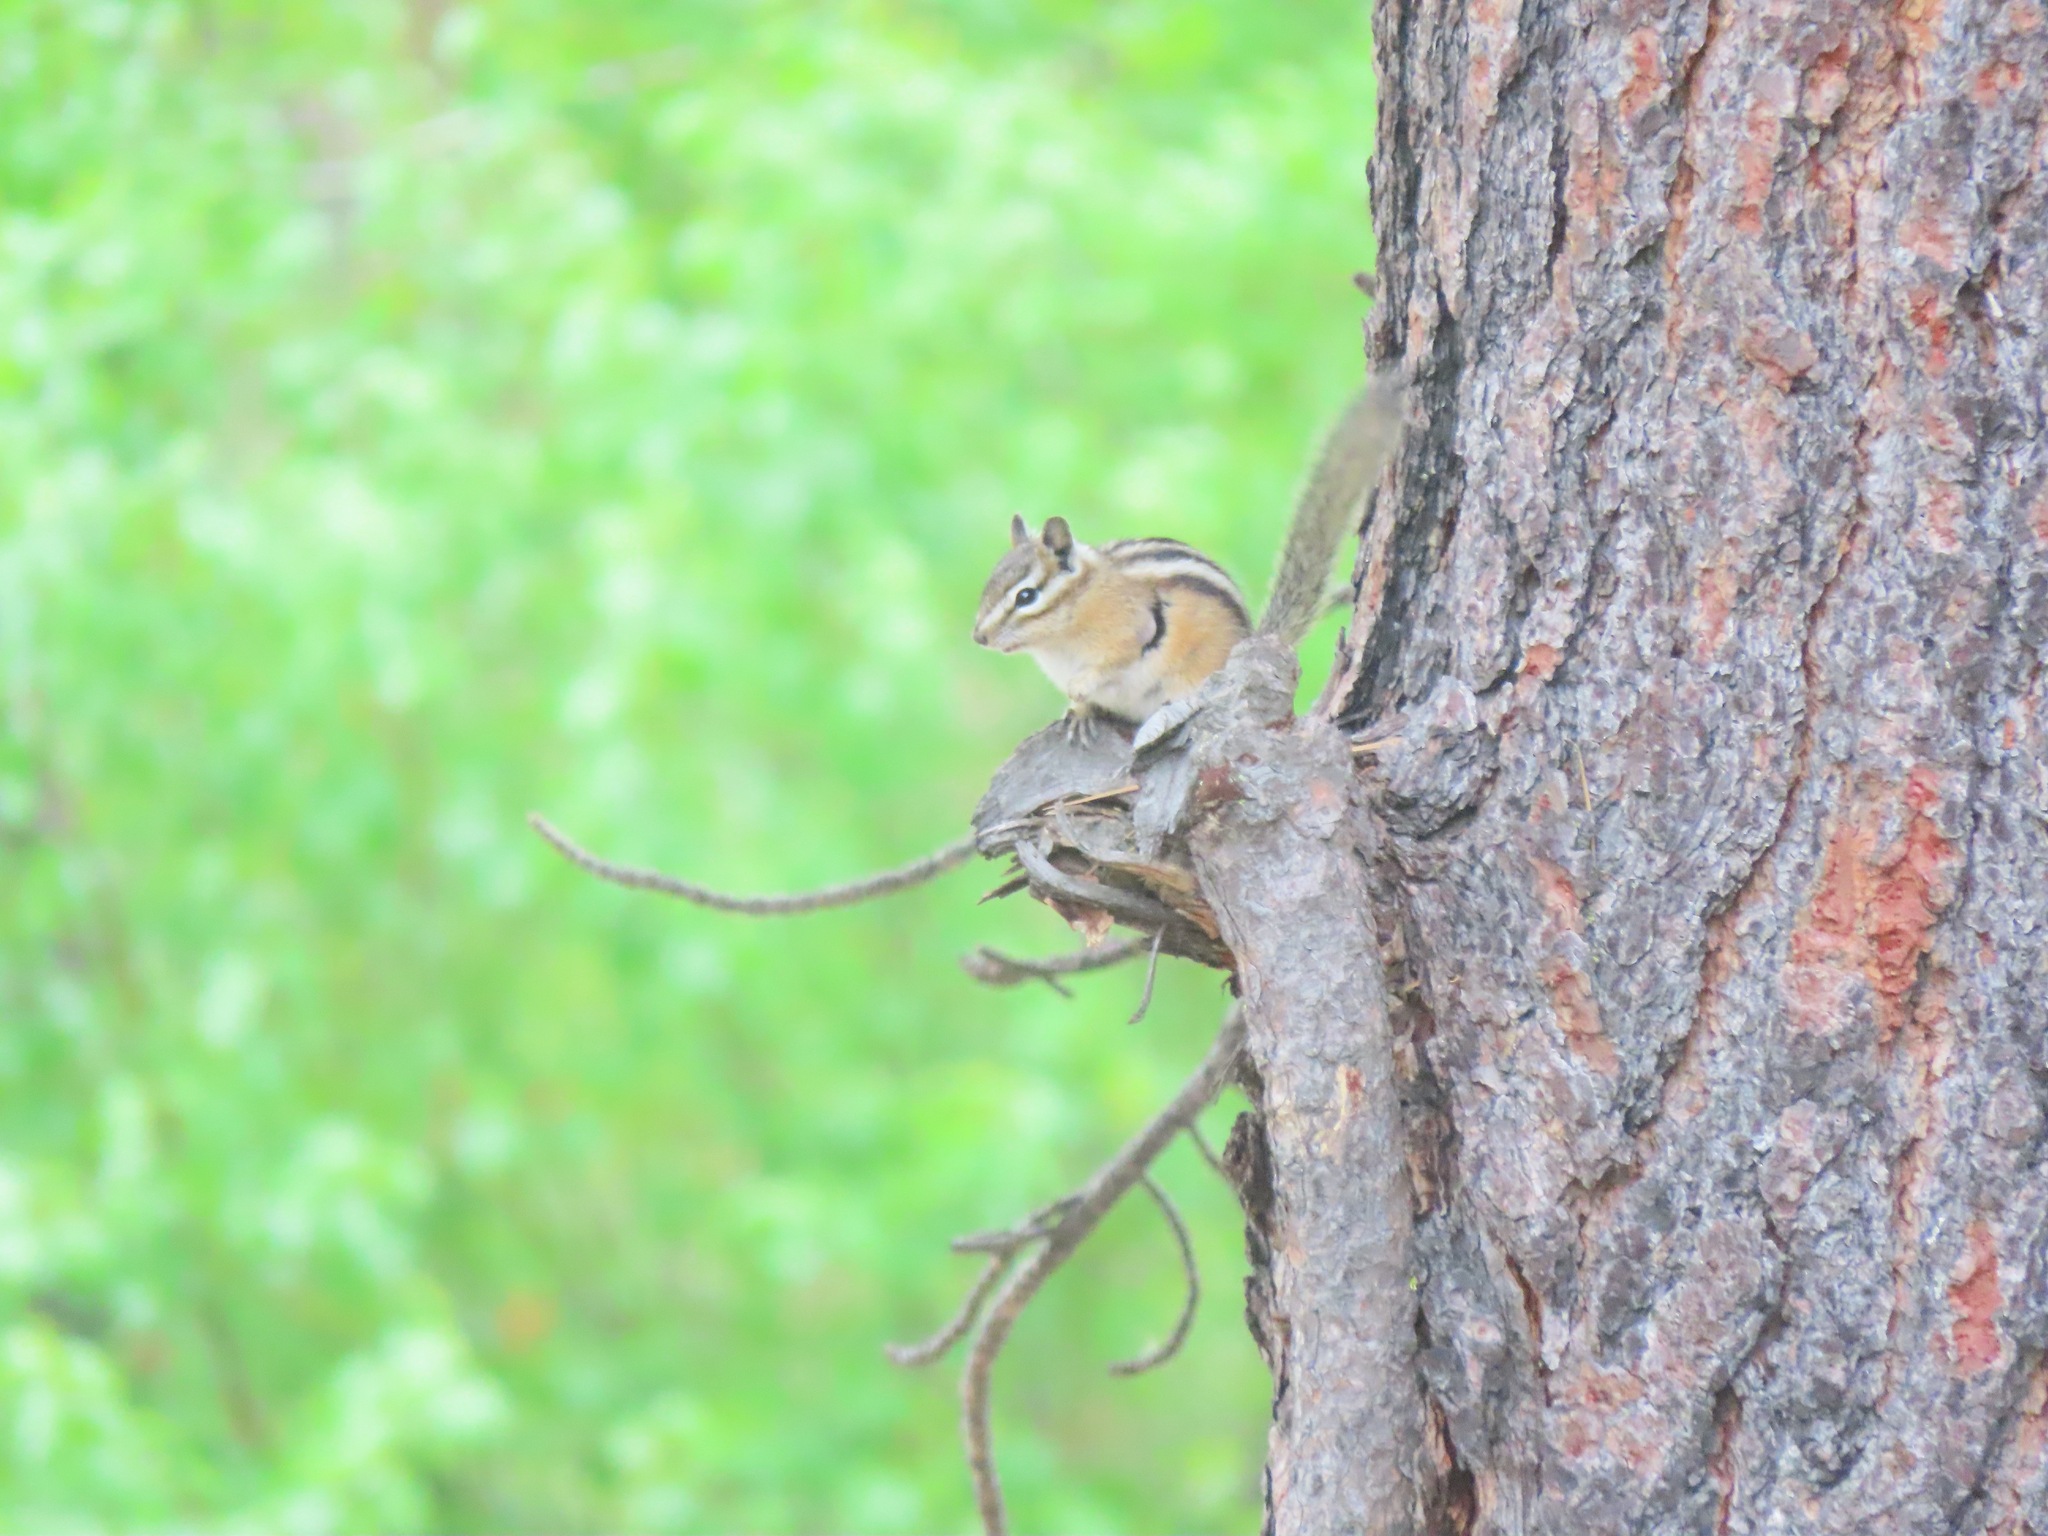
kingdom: Animalia
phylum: Chordata
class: Mammalia
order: Rodentia
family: Sciuridae
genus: Tamias
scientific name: Tamias amoenus
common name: Yellow-pine chipmunk
